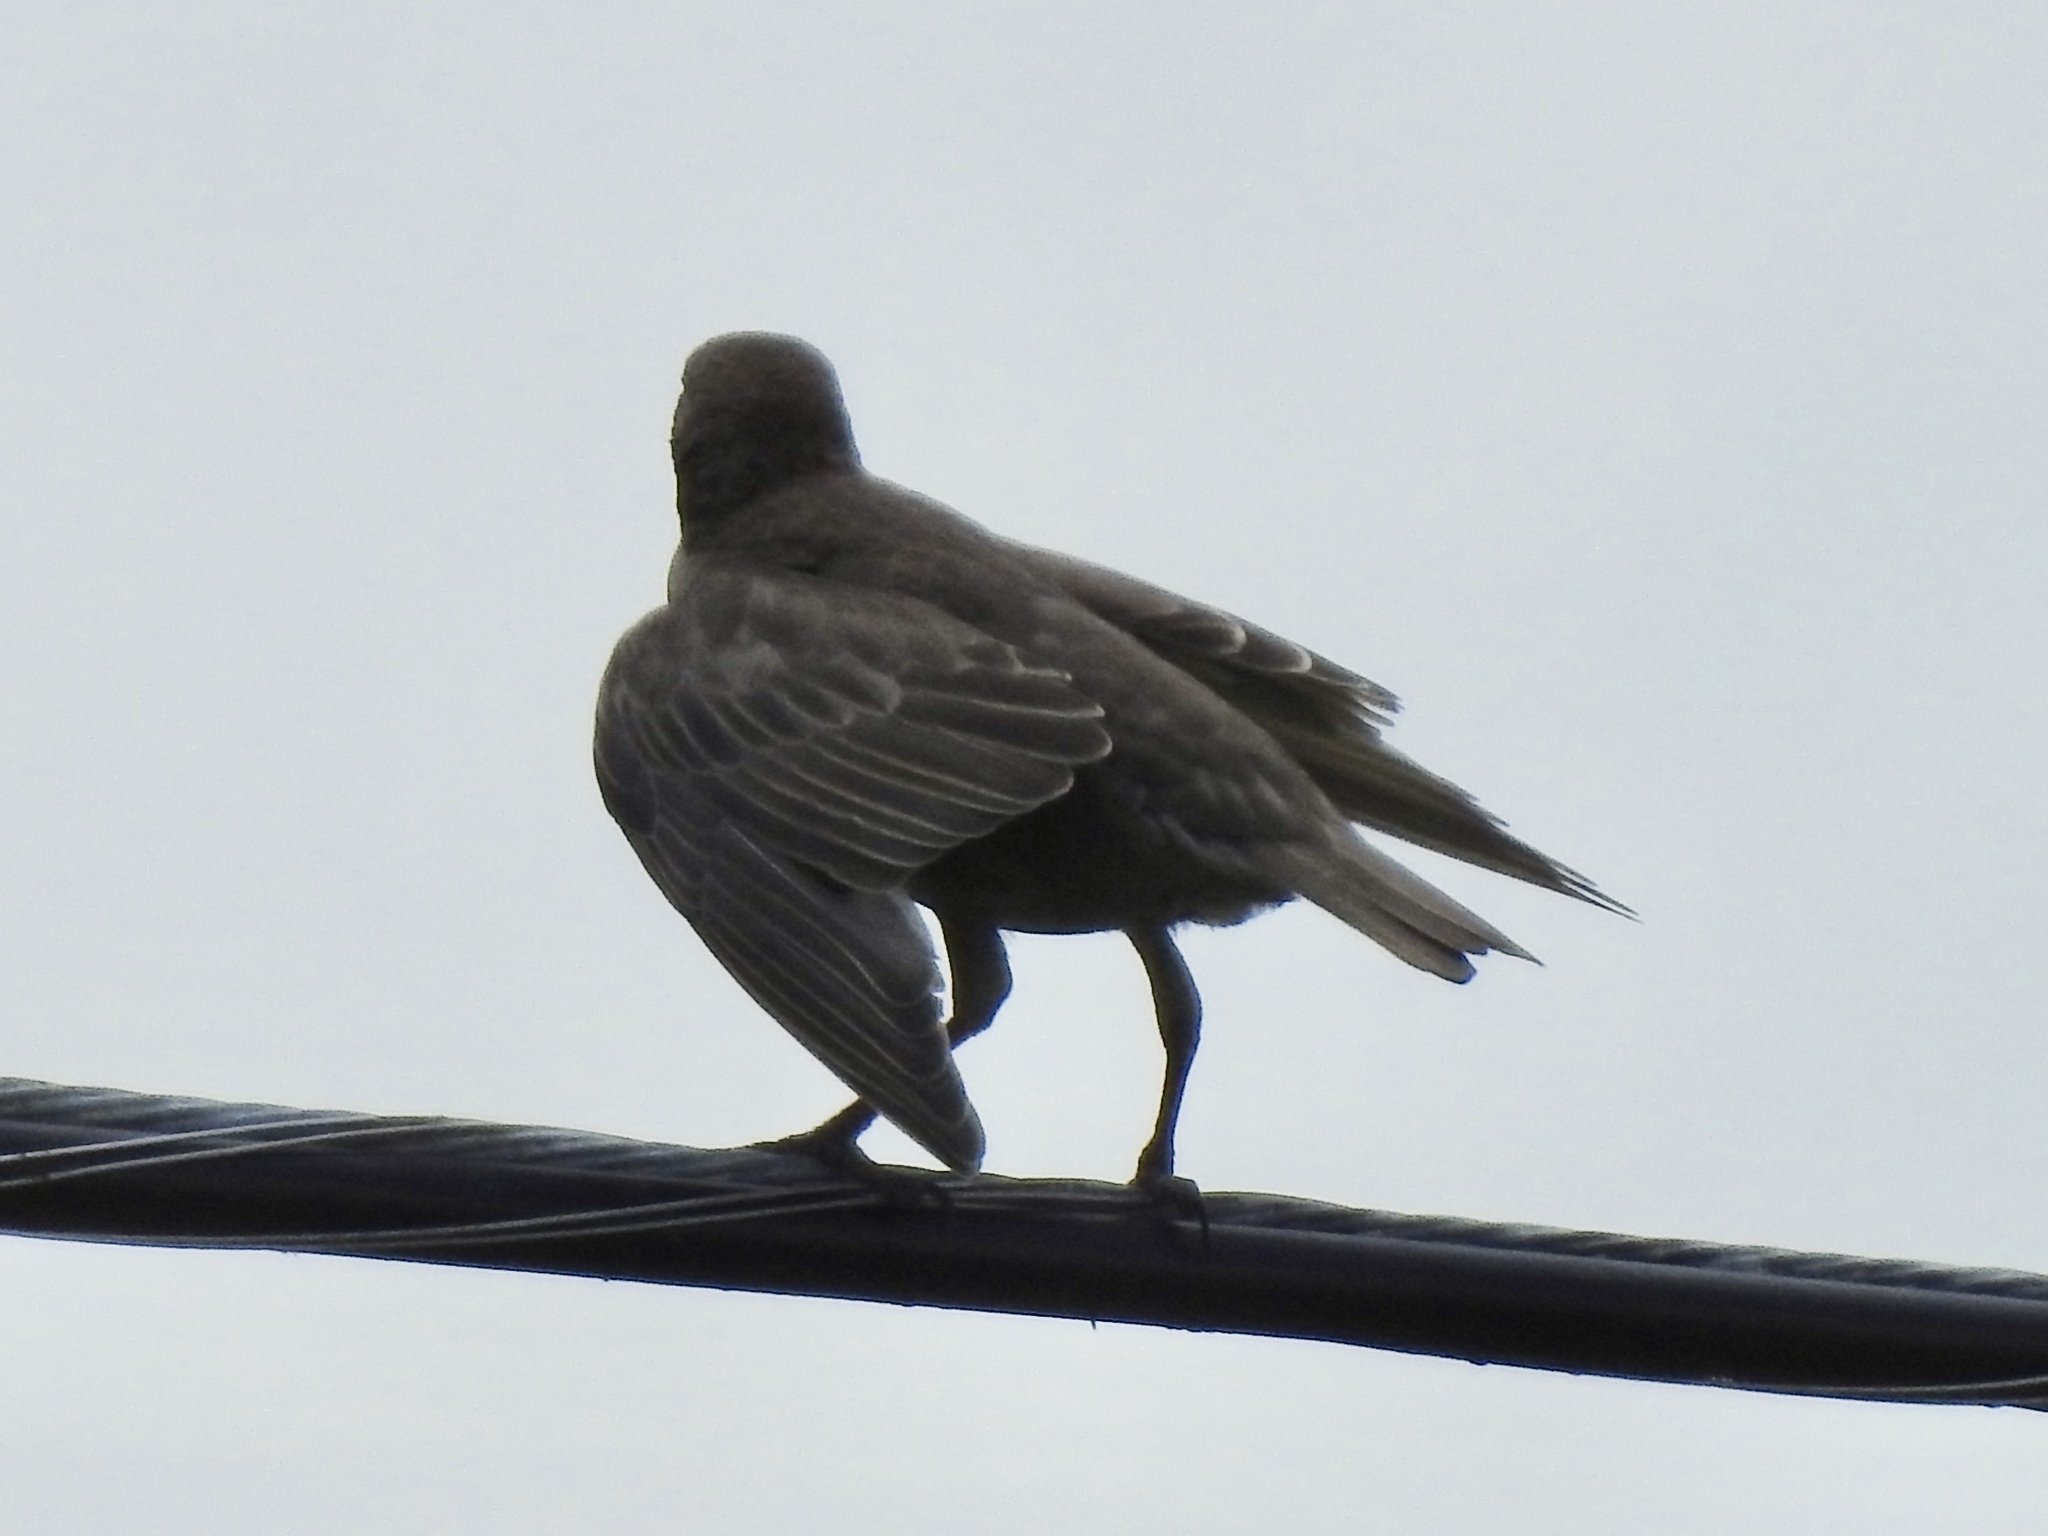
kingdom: Animalia
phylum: Chordata
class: Aves
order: Passeriformes
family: Sturnidae
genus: Sturnus
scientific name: Sturnus vulgaris
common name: Common starling
